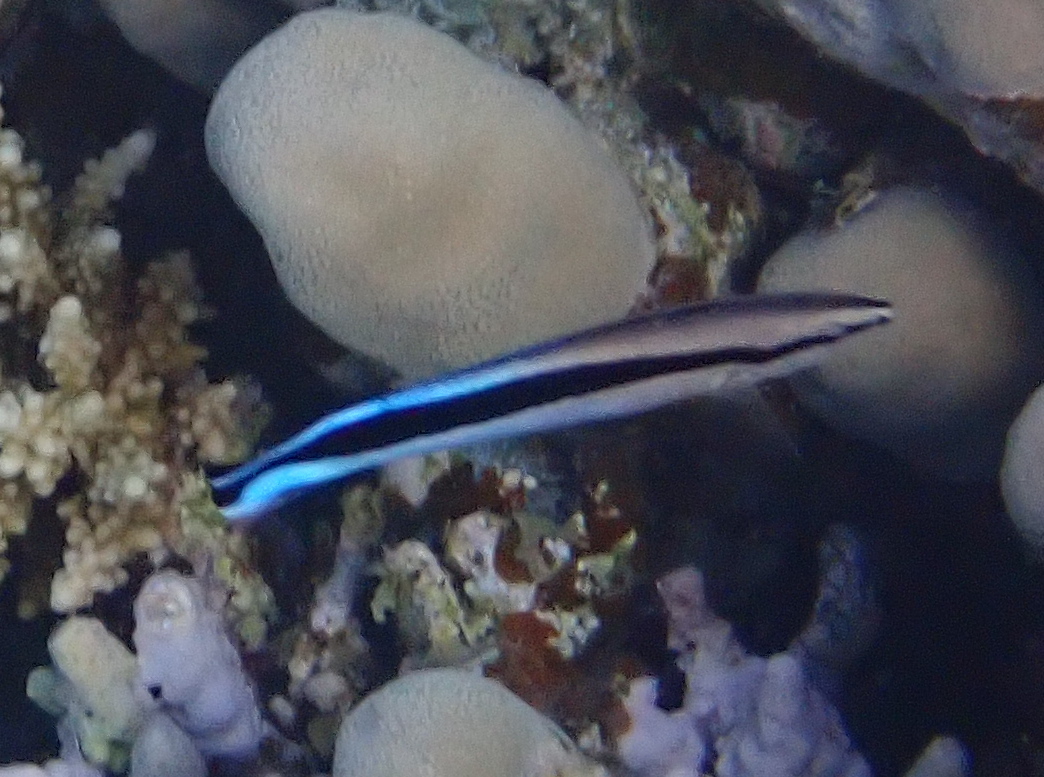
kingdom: Animalia
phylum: Chordata
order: Perciformes
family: Labridae
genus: Labroides
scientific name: Labroides dimidiatus
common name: Blue diesel wrasse
